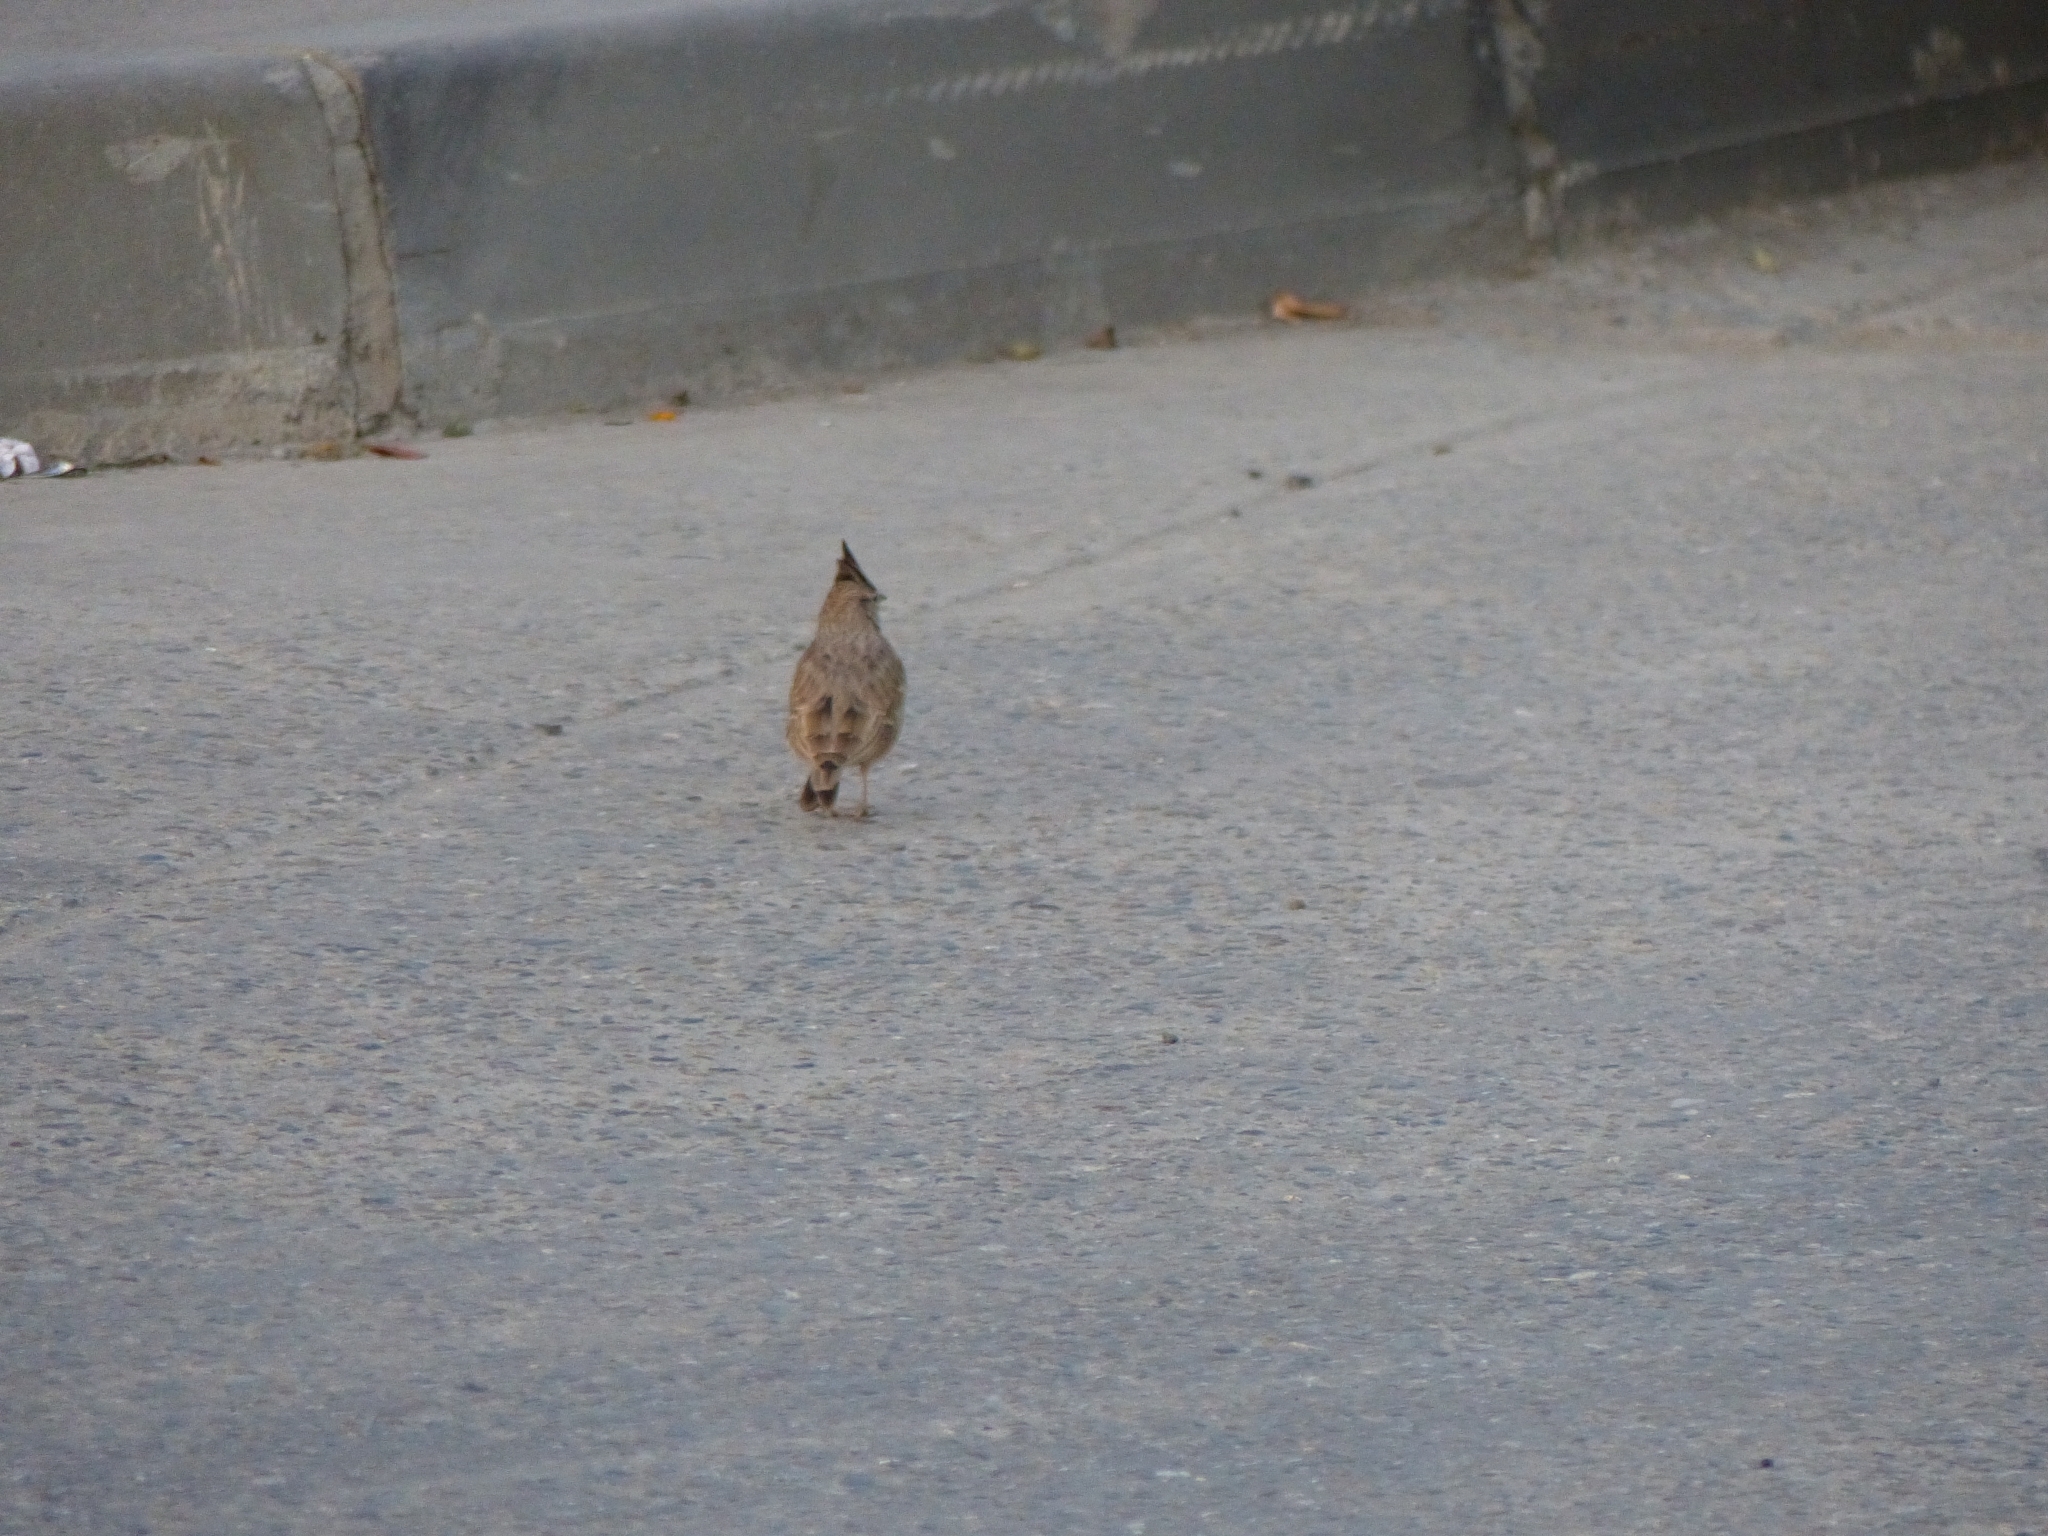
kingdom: Animalia
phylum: Chordata
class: Aves
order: Passeriformes
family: Alaudidae
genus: Galerida
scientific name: Galerida cristata
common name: Crested lark
